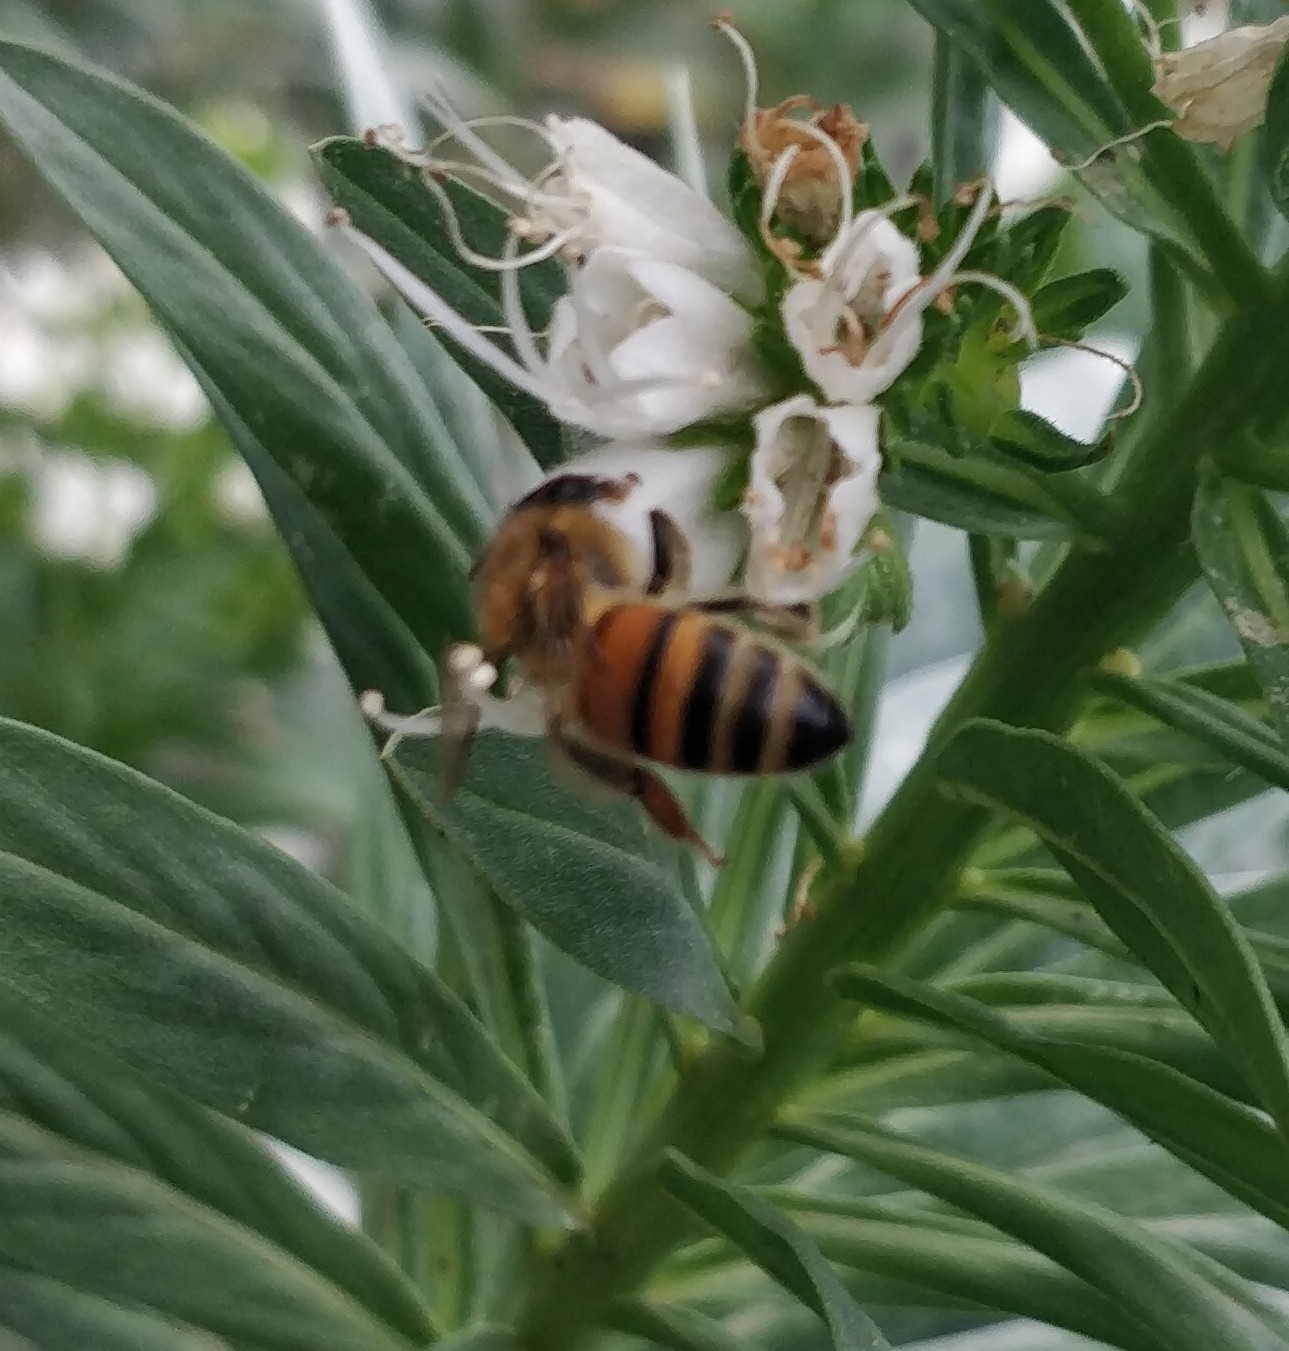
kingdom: Animalia
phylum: Arthropoda
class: Insecta
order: Hymenoptera
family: Apidae
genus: Apis
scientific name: Apis mellifera
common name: Honey bee
